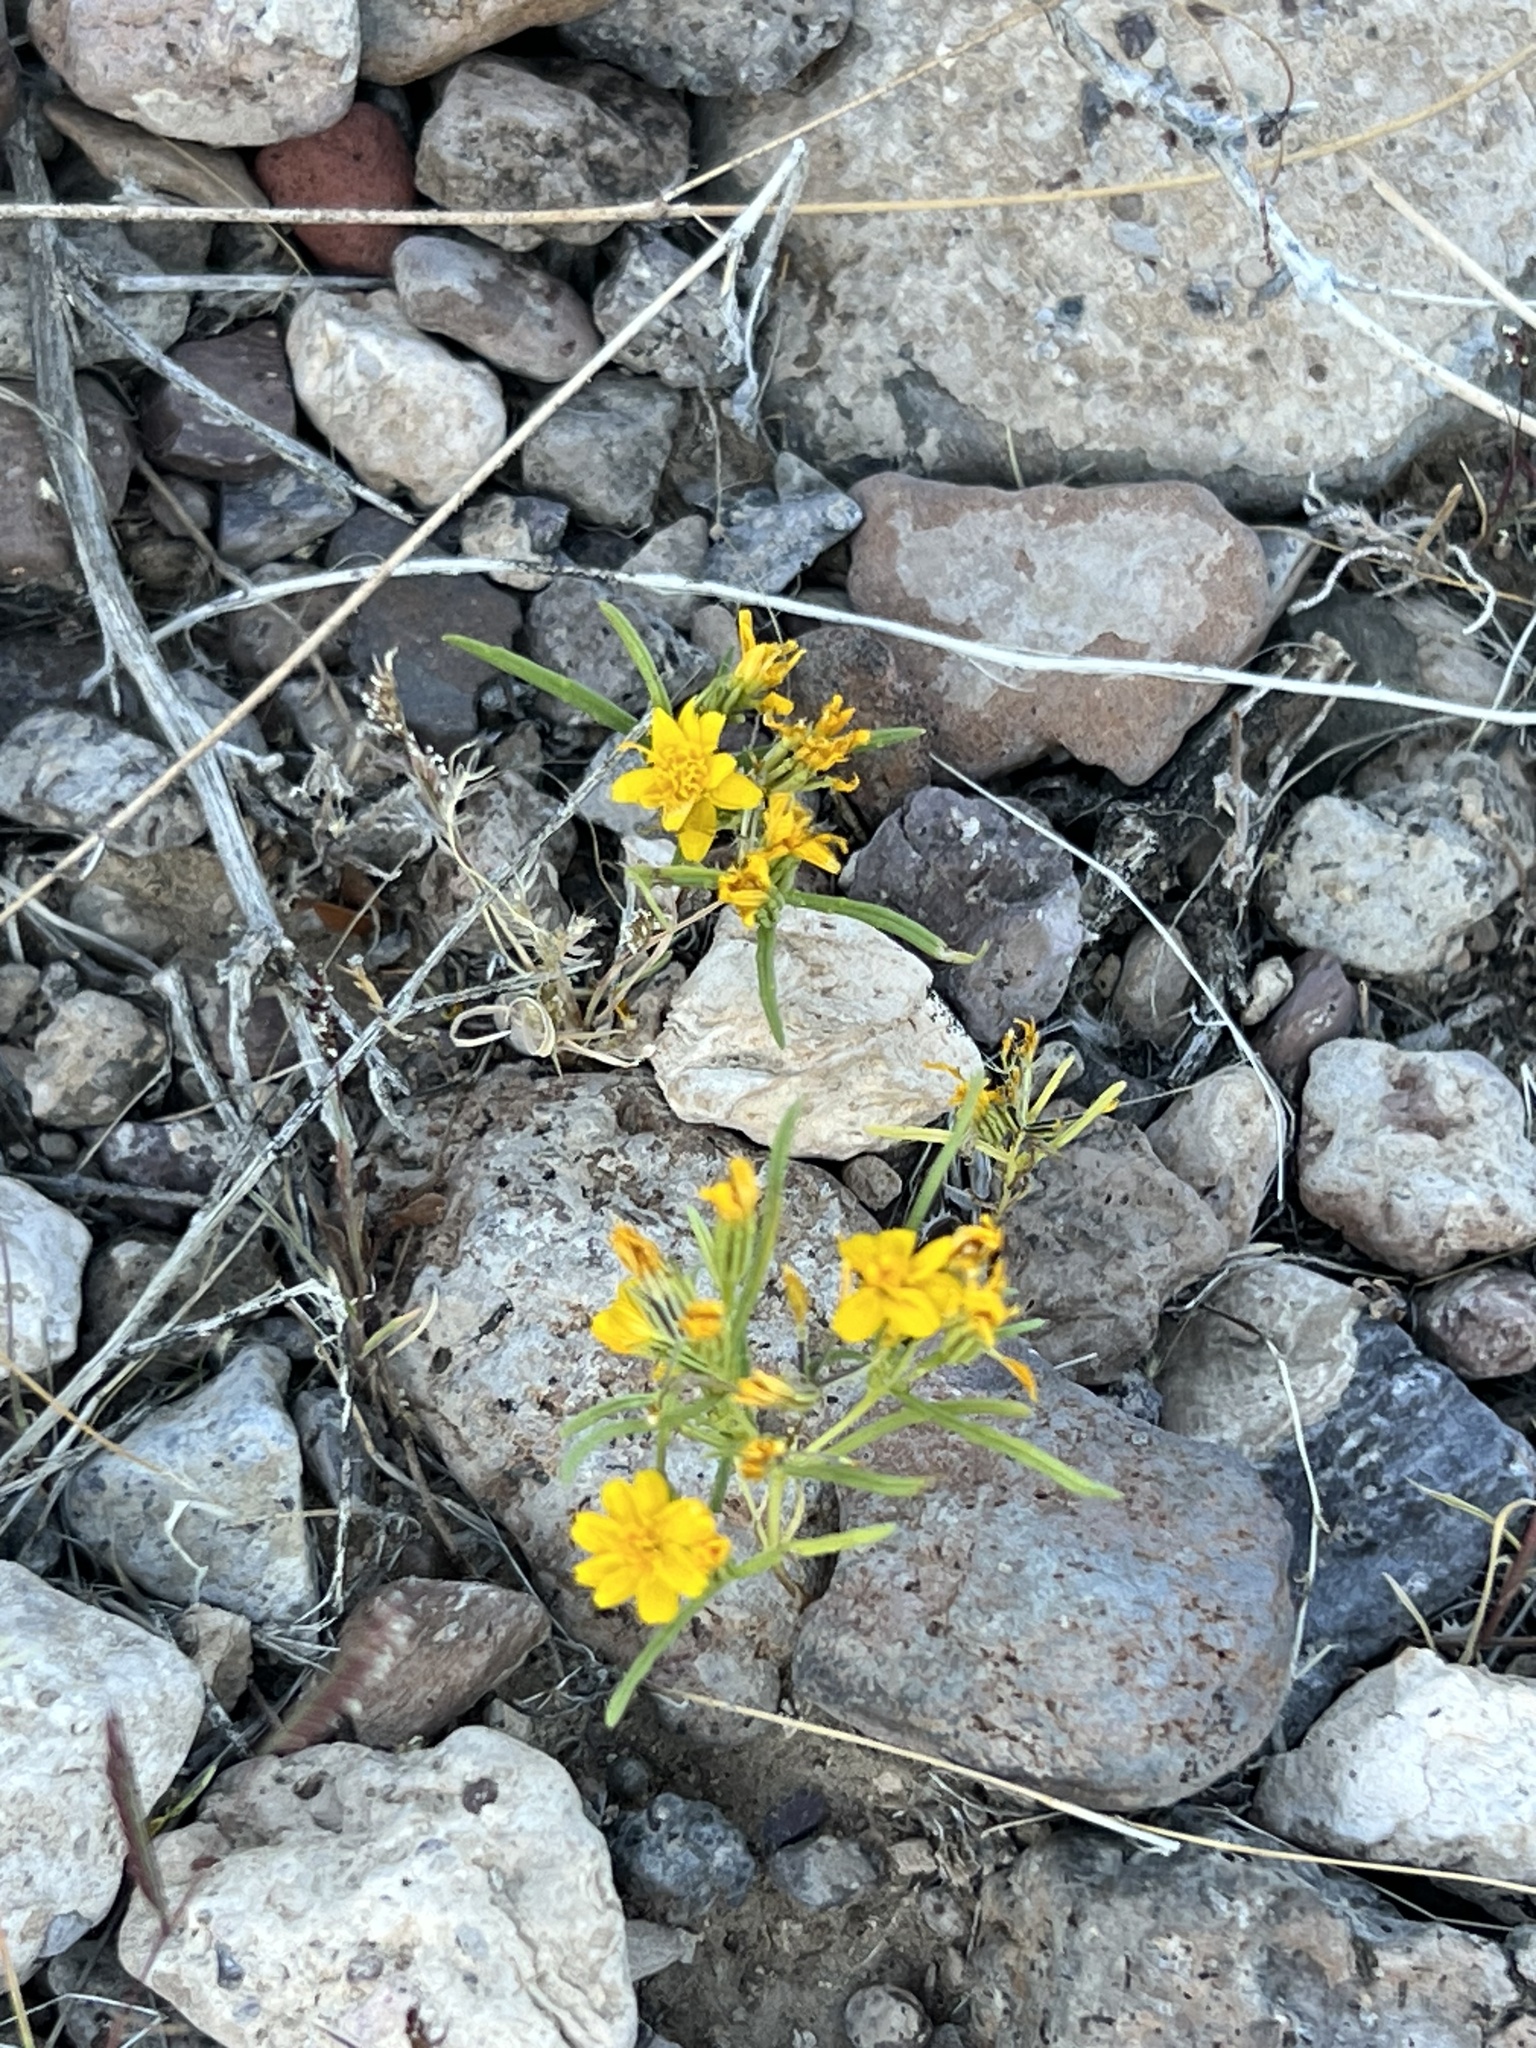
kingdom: Plantae
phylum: Tracheophyta
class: Magnoliopsida
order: Asterales
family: Asteraceae
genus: Pectis
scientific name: Pectis papposa
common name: Many-bristle chinchweed
